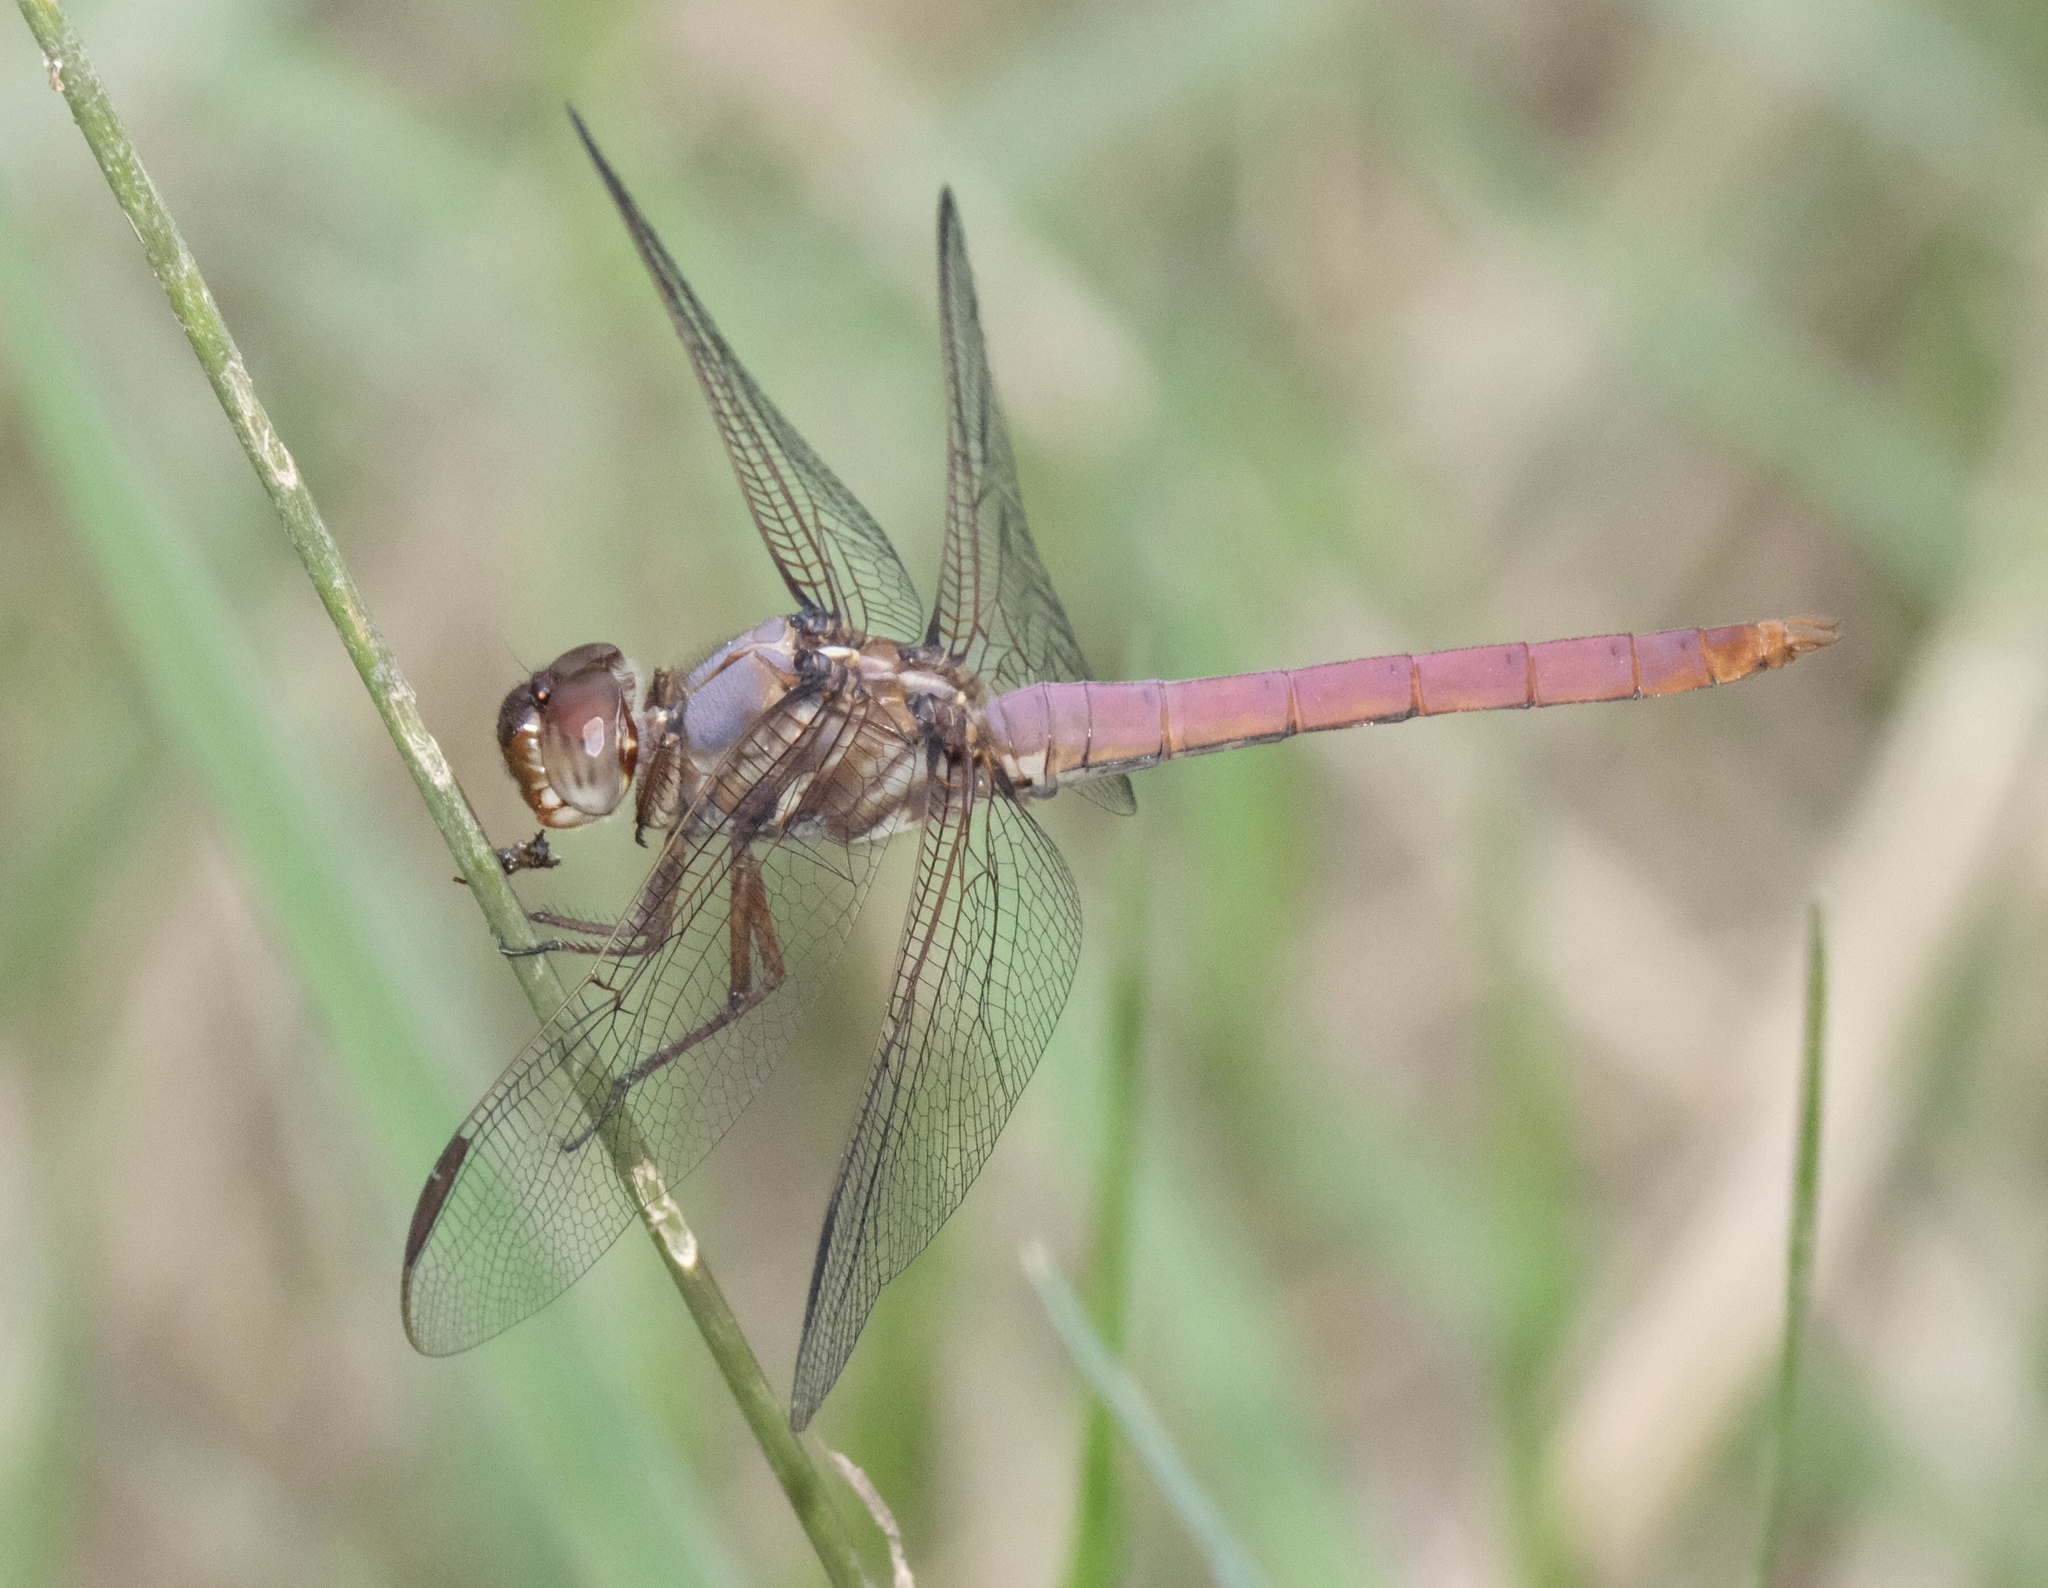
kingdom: Animalia
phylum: Arthropoda
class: Insecta
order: Odonata
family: Libellulidae
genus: Orthemis
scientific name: Orthemis ferruginea
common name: Roseate skimmer
